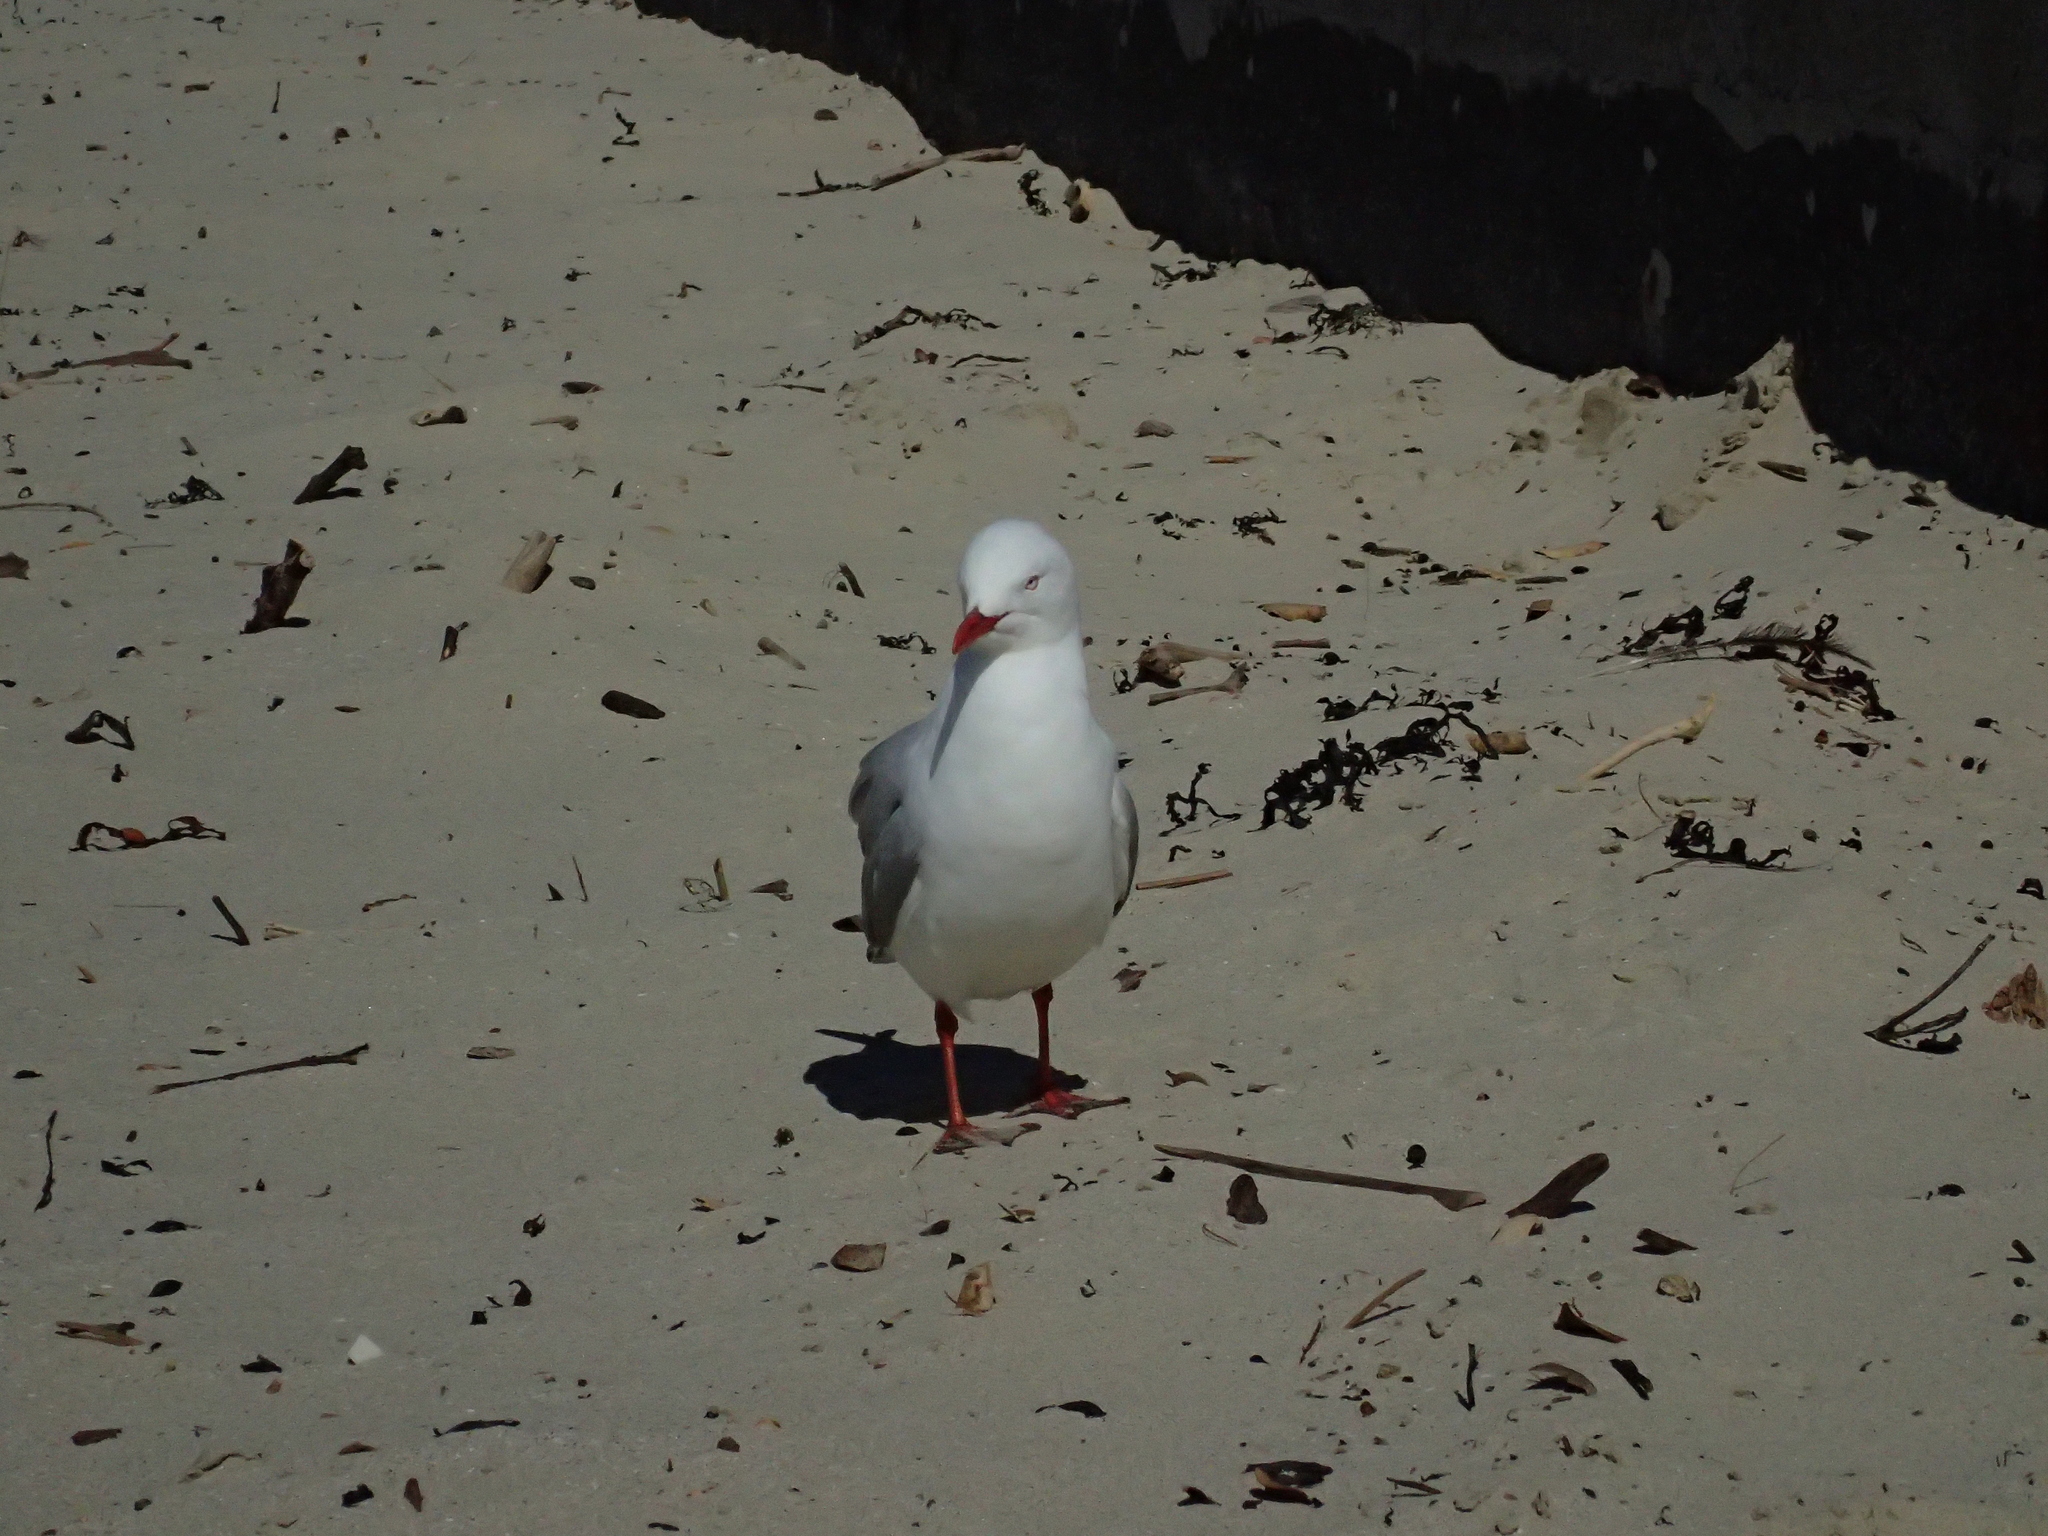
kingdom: Animalia
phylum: Chordata
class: Aves
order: Charadriiformes
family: Laridae
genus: Chroicocephalus
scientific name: Chroicocephalus novaehollandiae
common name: Silver gull
